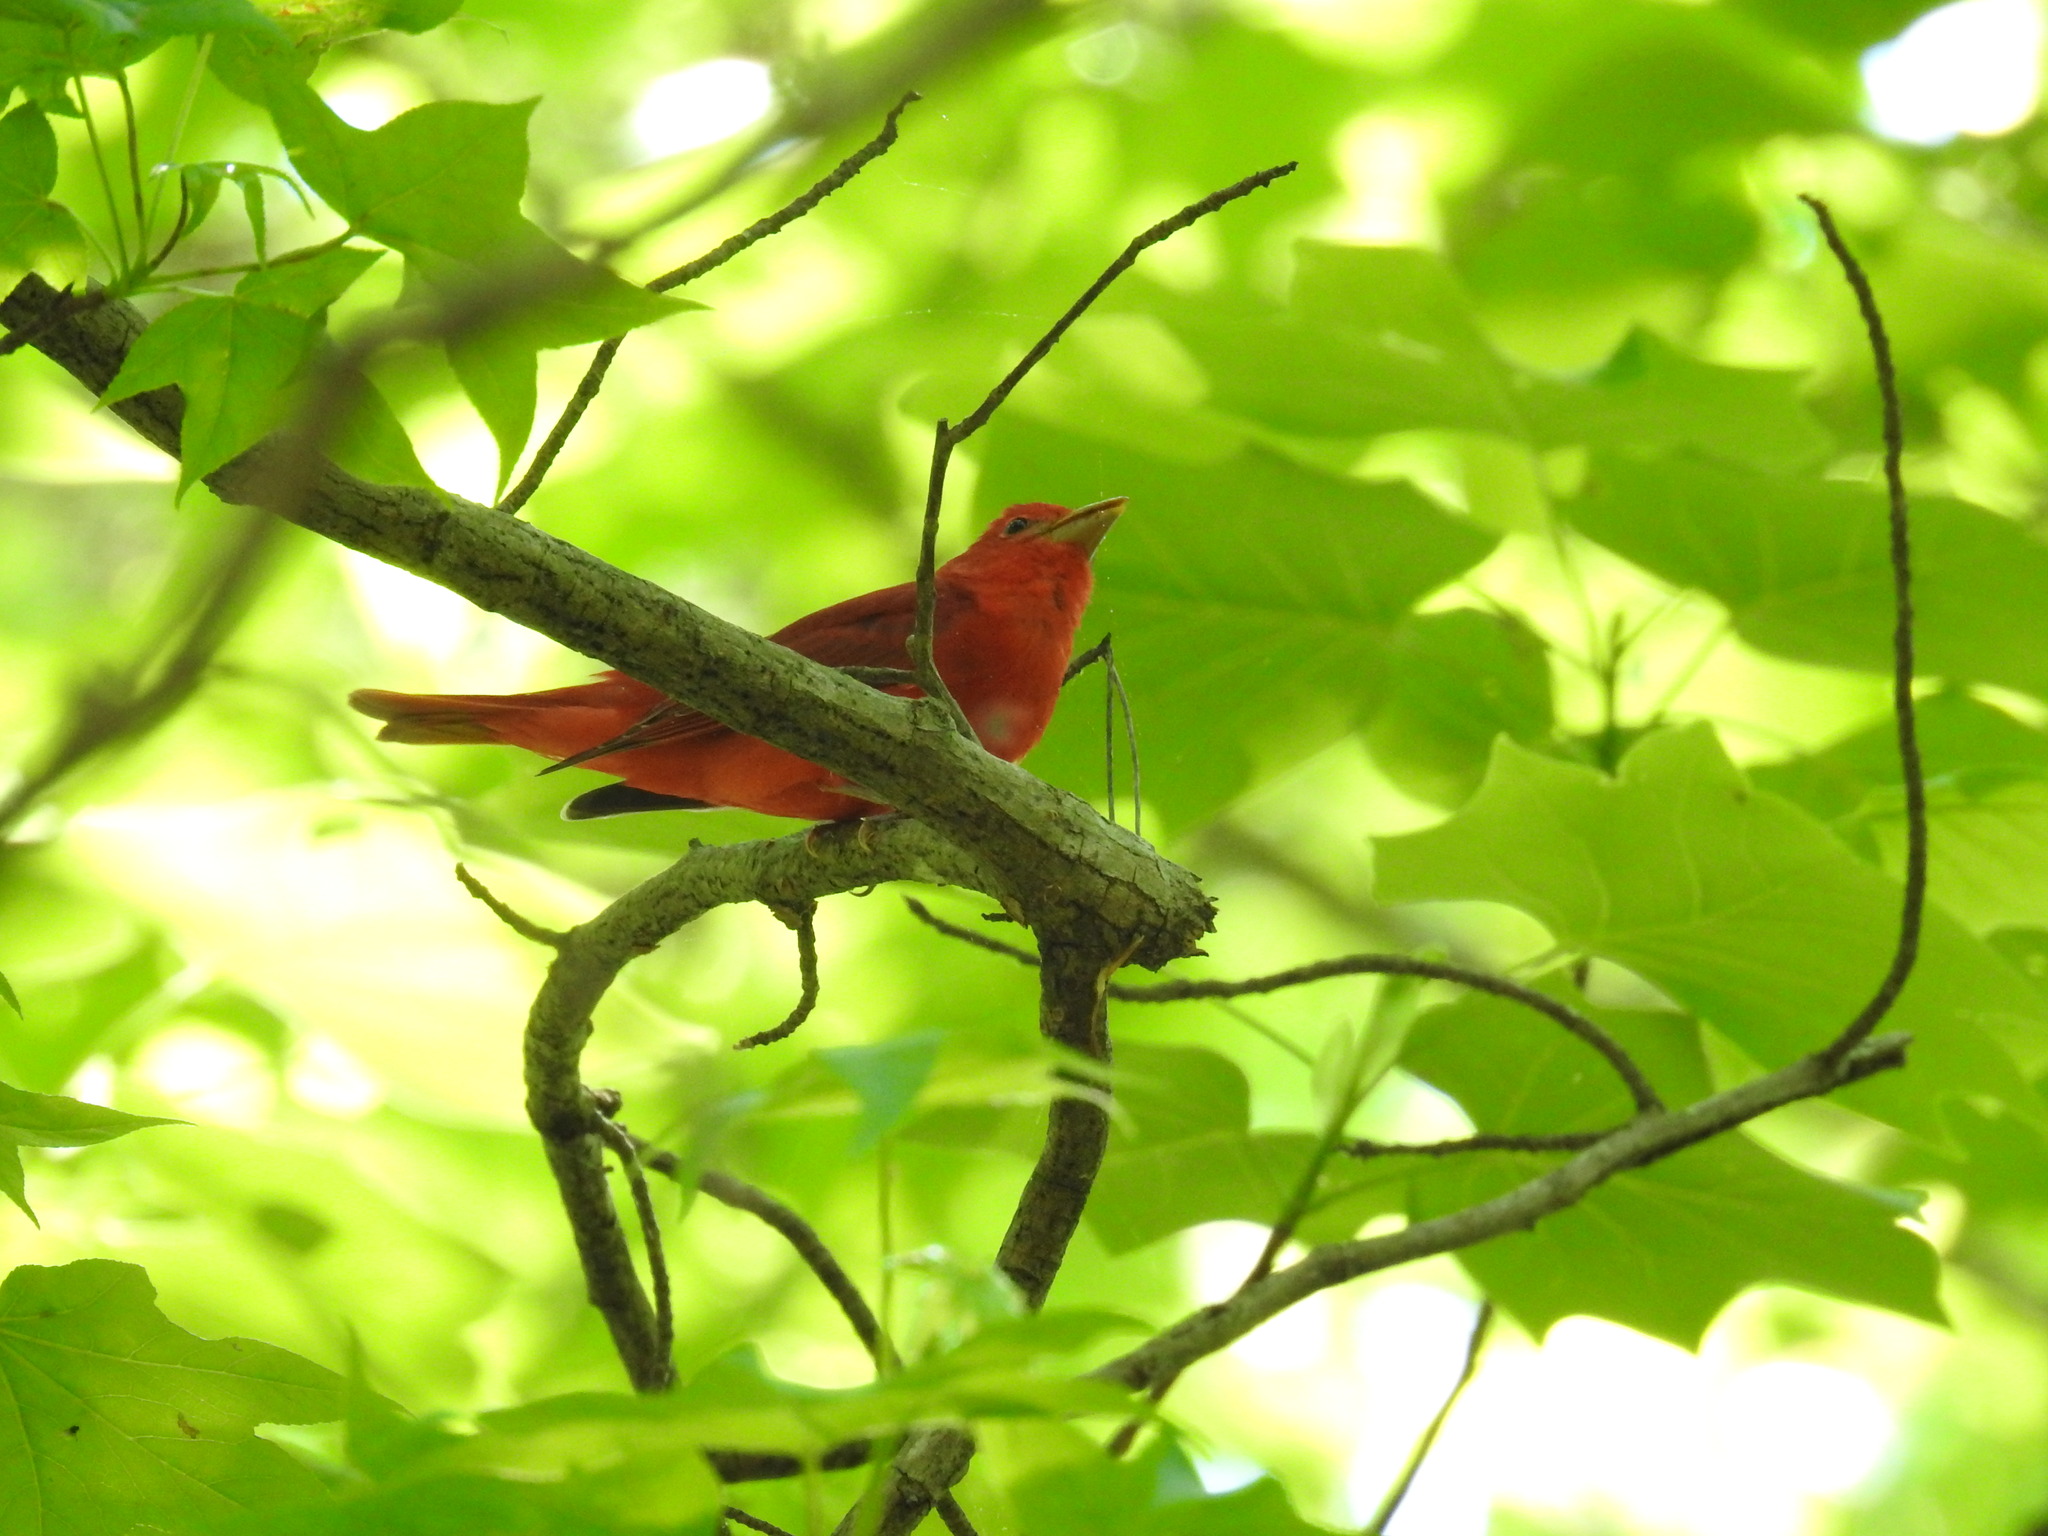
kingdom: Animalia
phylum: Chordata
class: Aves
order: Passeriformes
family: Cardinalidae
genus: Piranga
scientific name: Piranga rubra
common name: Summer tanager
